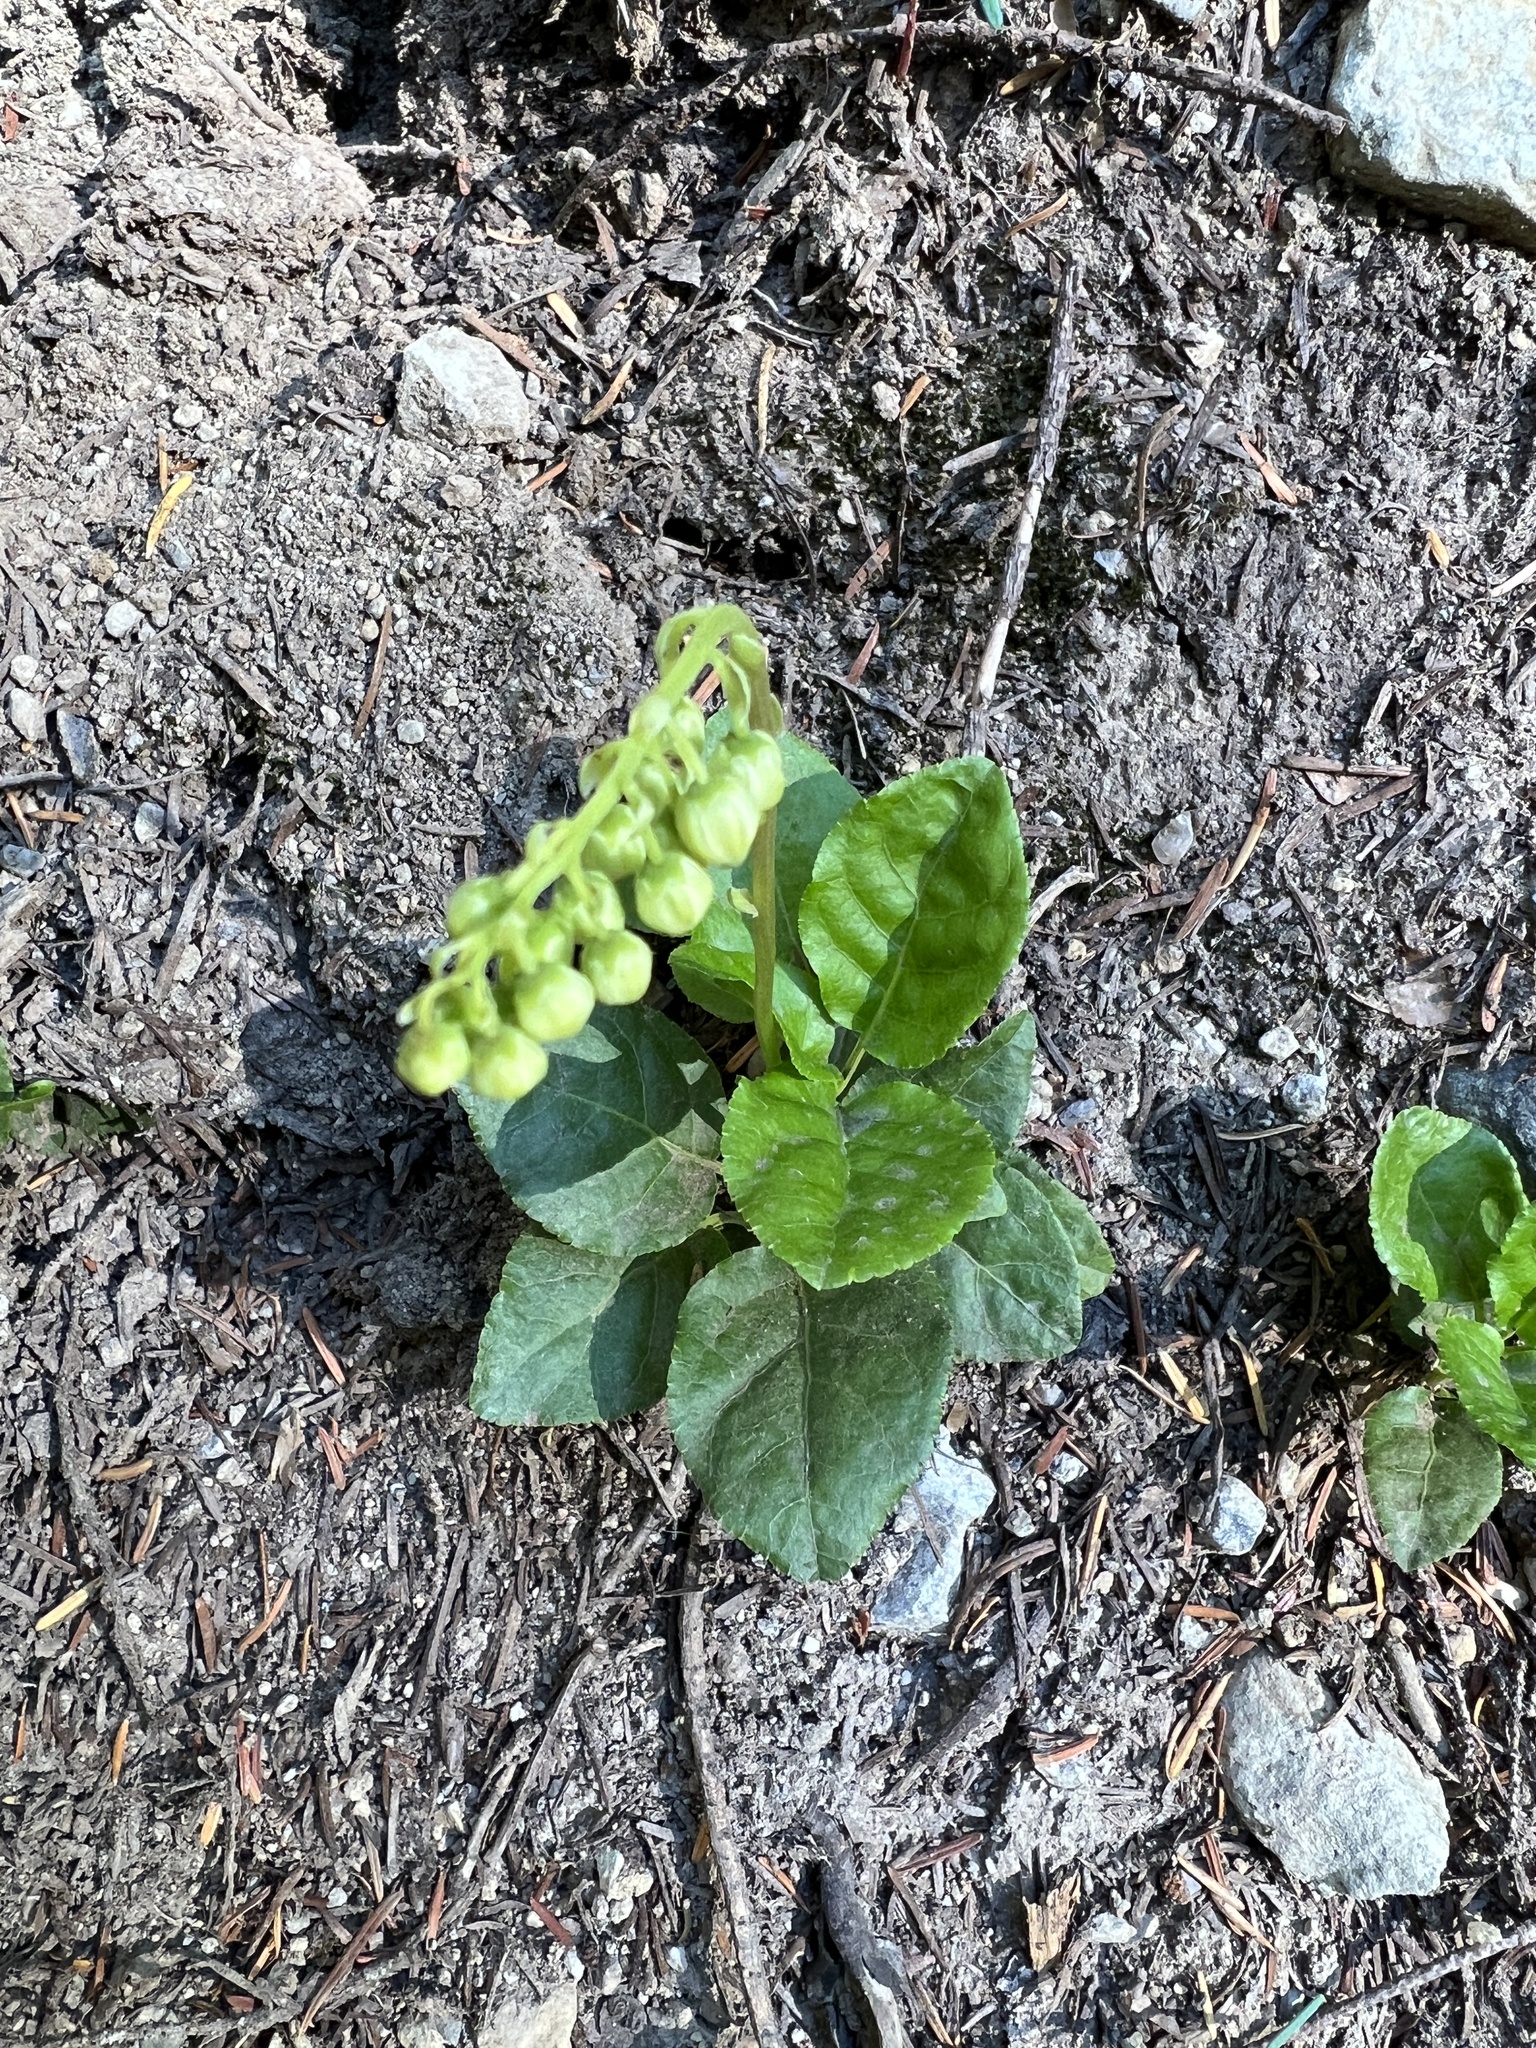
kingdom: Plantae
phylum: Tracheophyta
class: Magnoliopsida
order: Ericales
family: Ericaceae
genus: Orthilia
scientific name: Orthilia secunda
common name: One-sided orthilia
